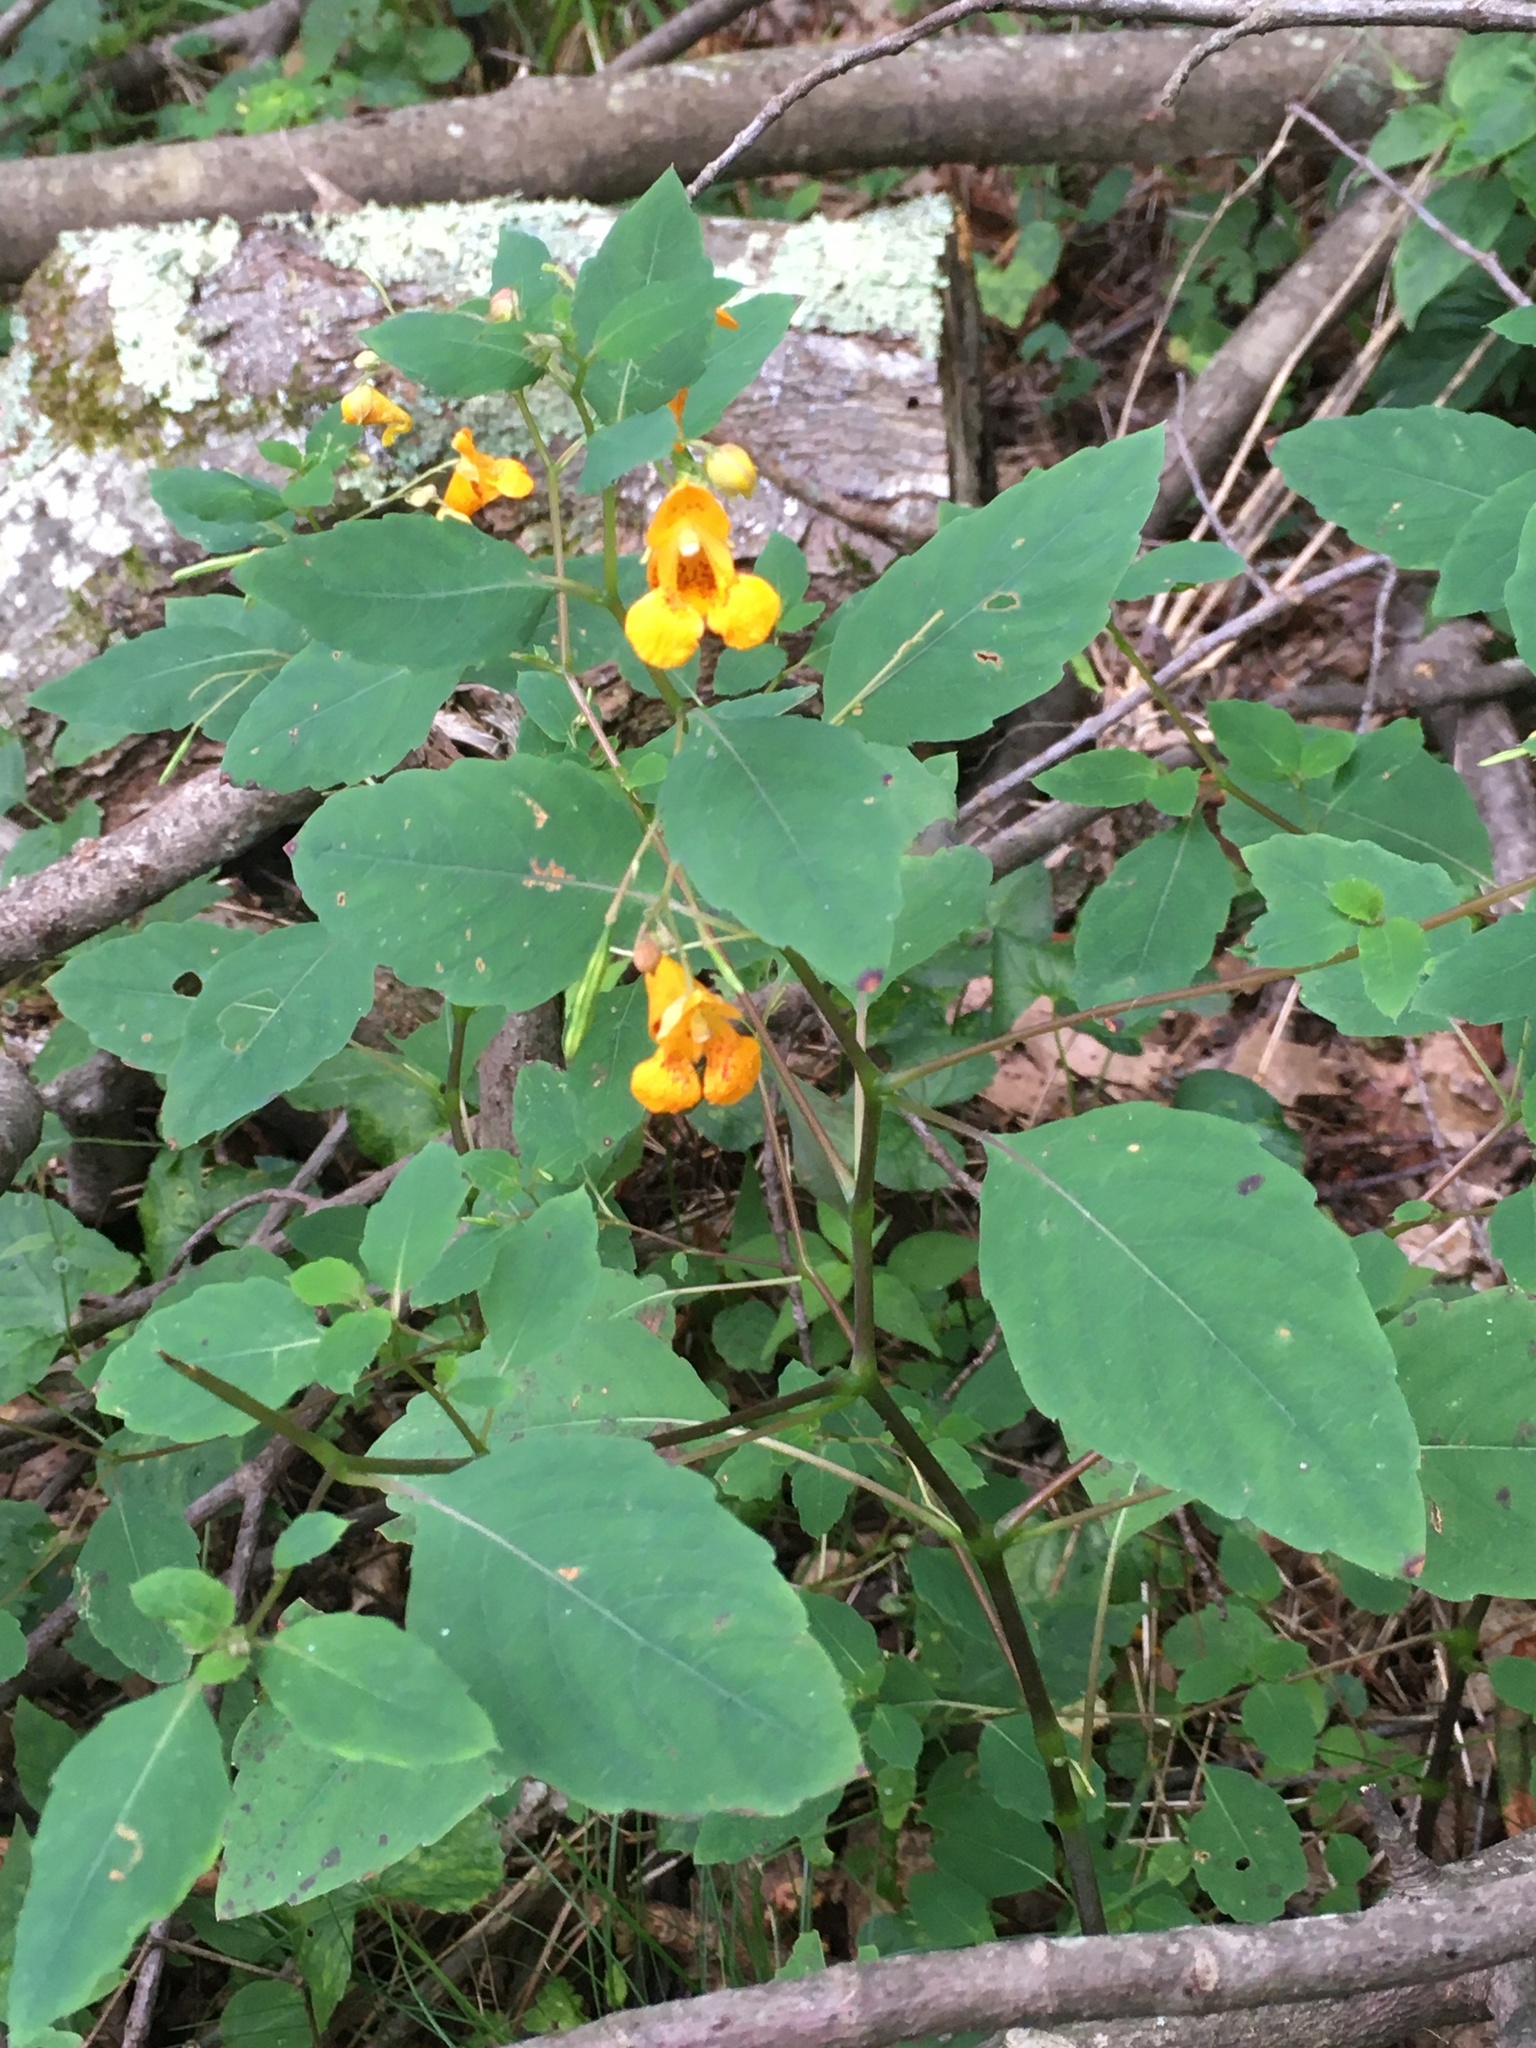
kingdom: Plantae
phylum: Tracheophyta
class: Magnoliopsida
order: Ericales
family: Balsaminaceae
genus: Impatiens
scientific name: Impatiens capensis
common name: Orange balsam
